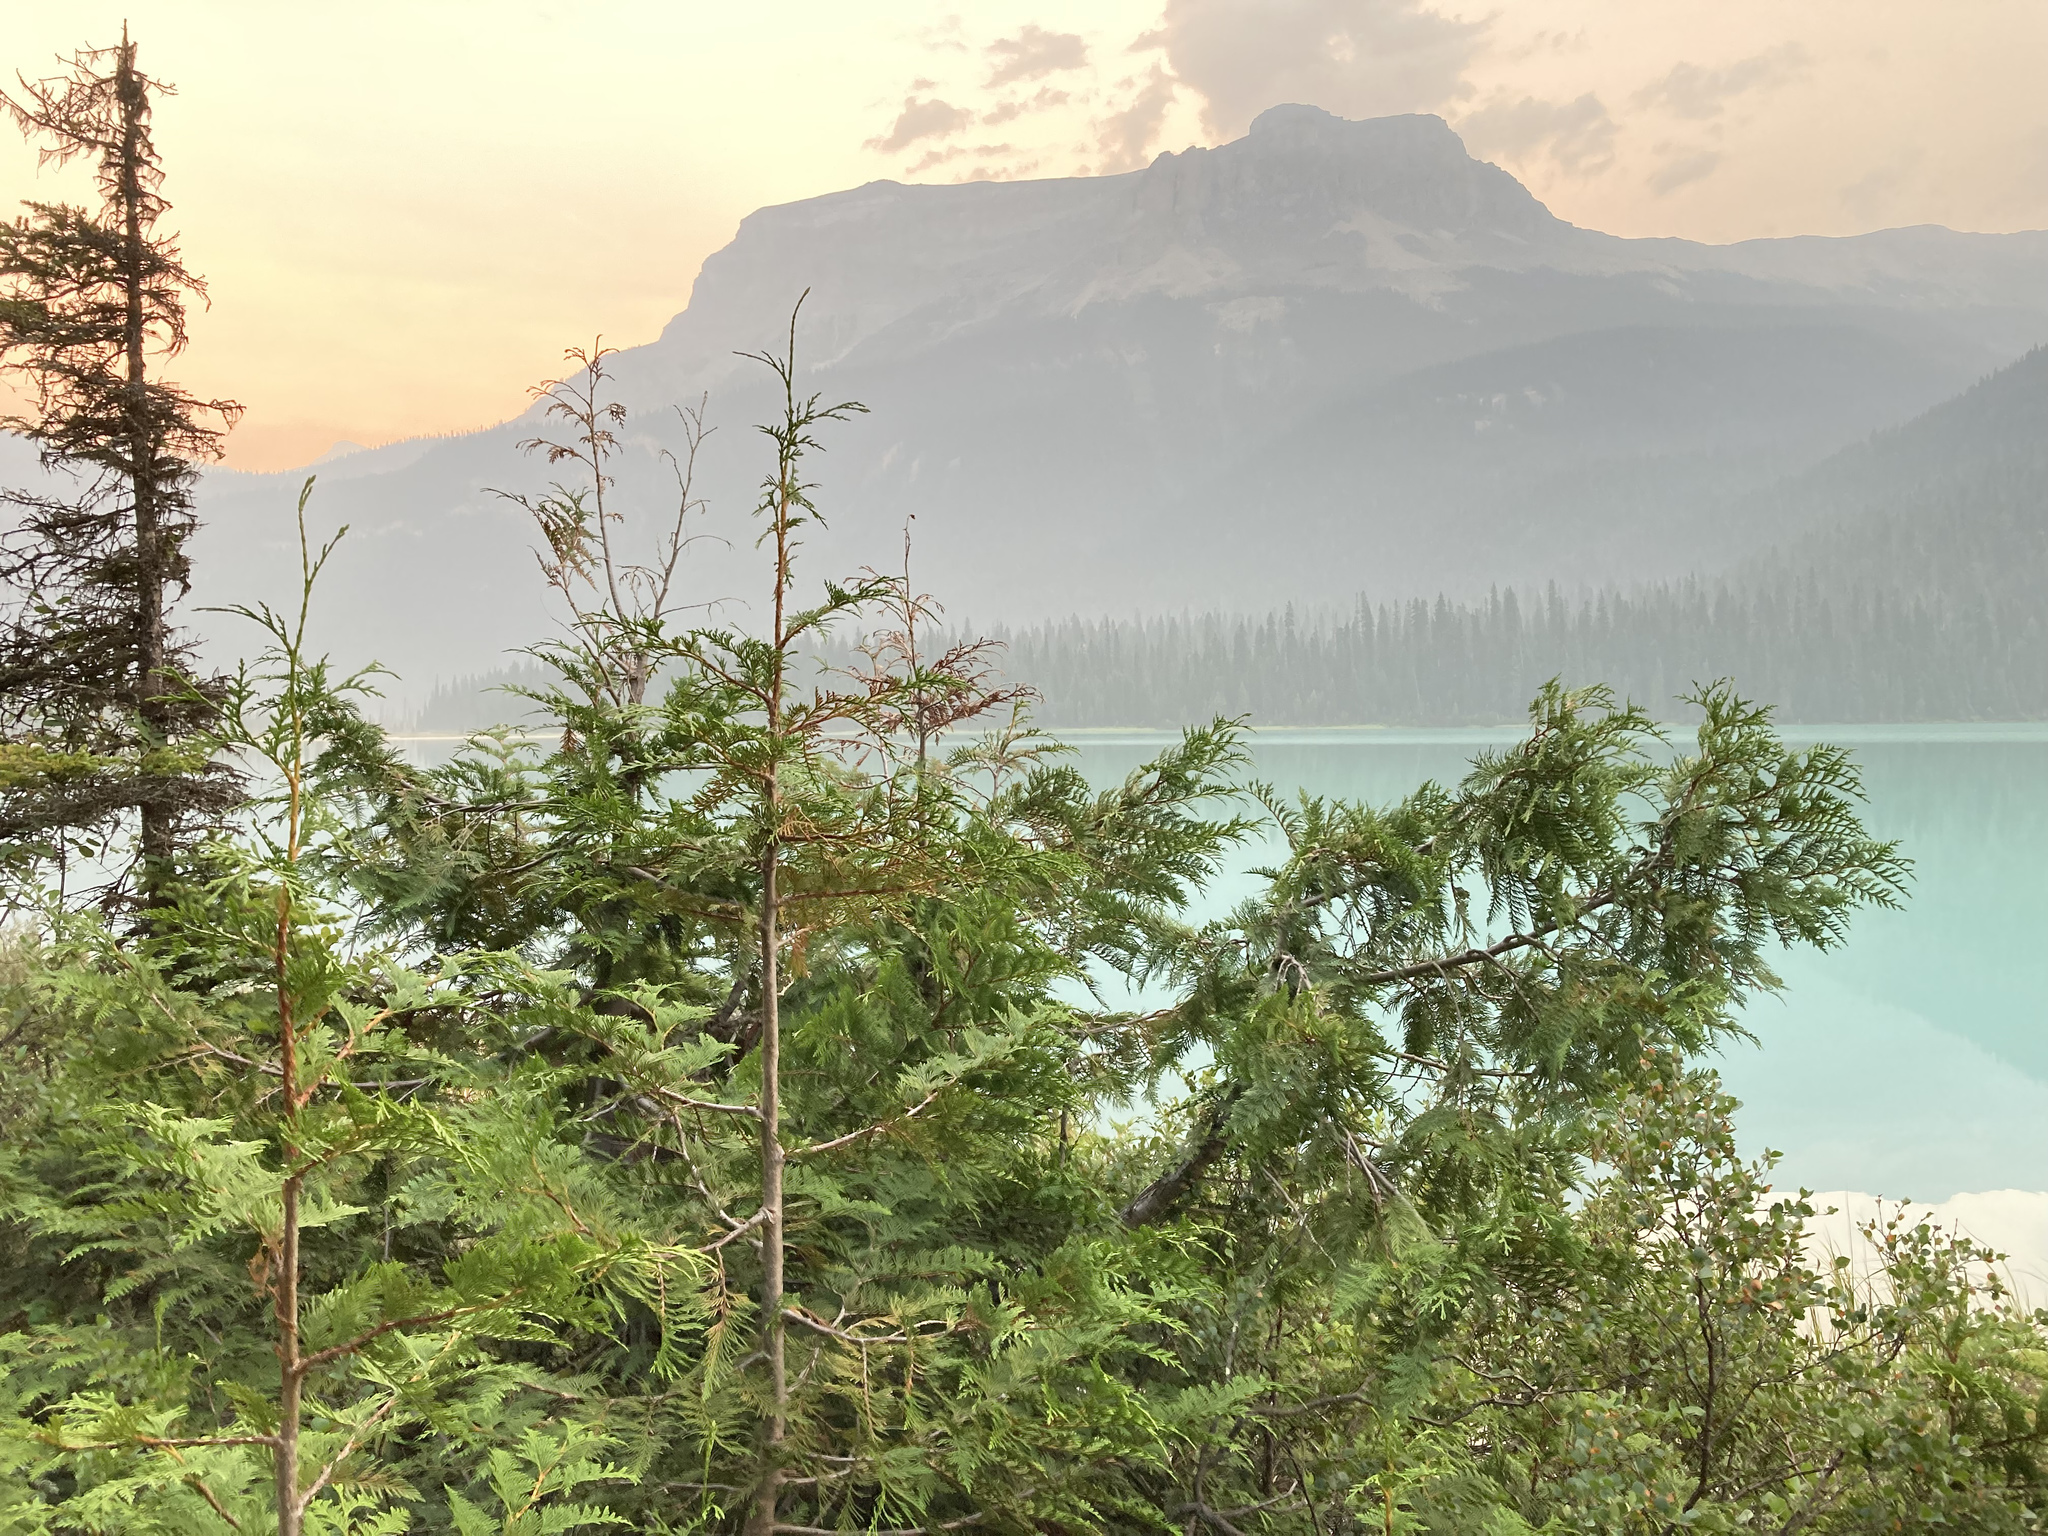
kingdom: Plantae
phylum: Tracheophyta
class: Pinopsida
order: Pinales
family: Cupressaceae
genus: Thuja
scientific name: Thuja plicata
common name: Western red-cedar
